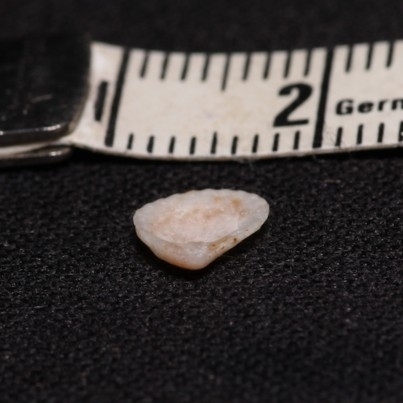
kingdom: Animalia
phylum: Mollusca
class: Bivalvia
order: Carditida
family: Carditidae
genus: Pteromeris
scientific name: Pteromeris perplana
